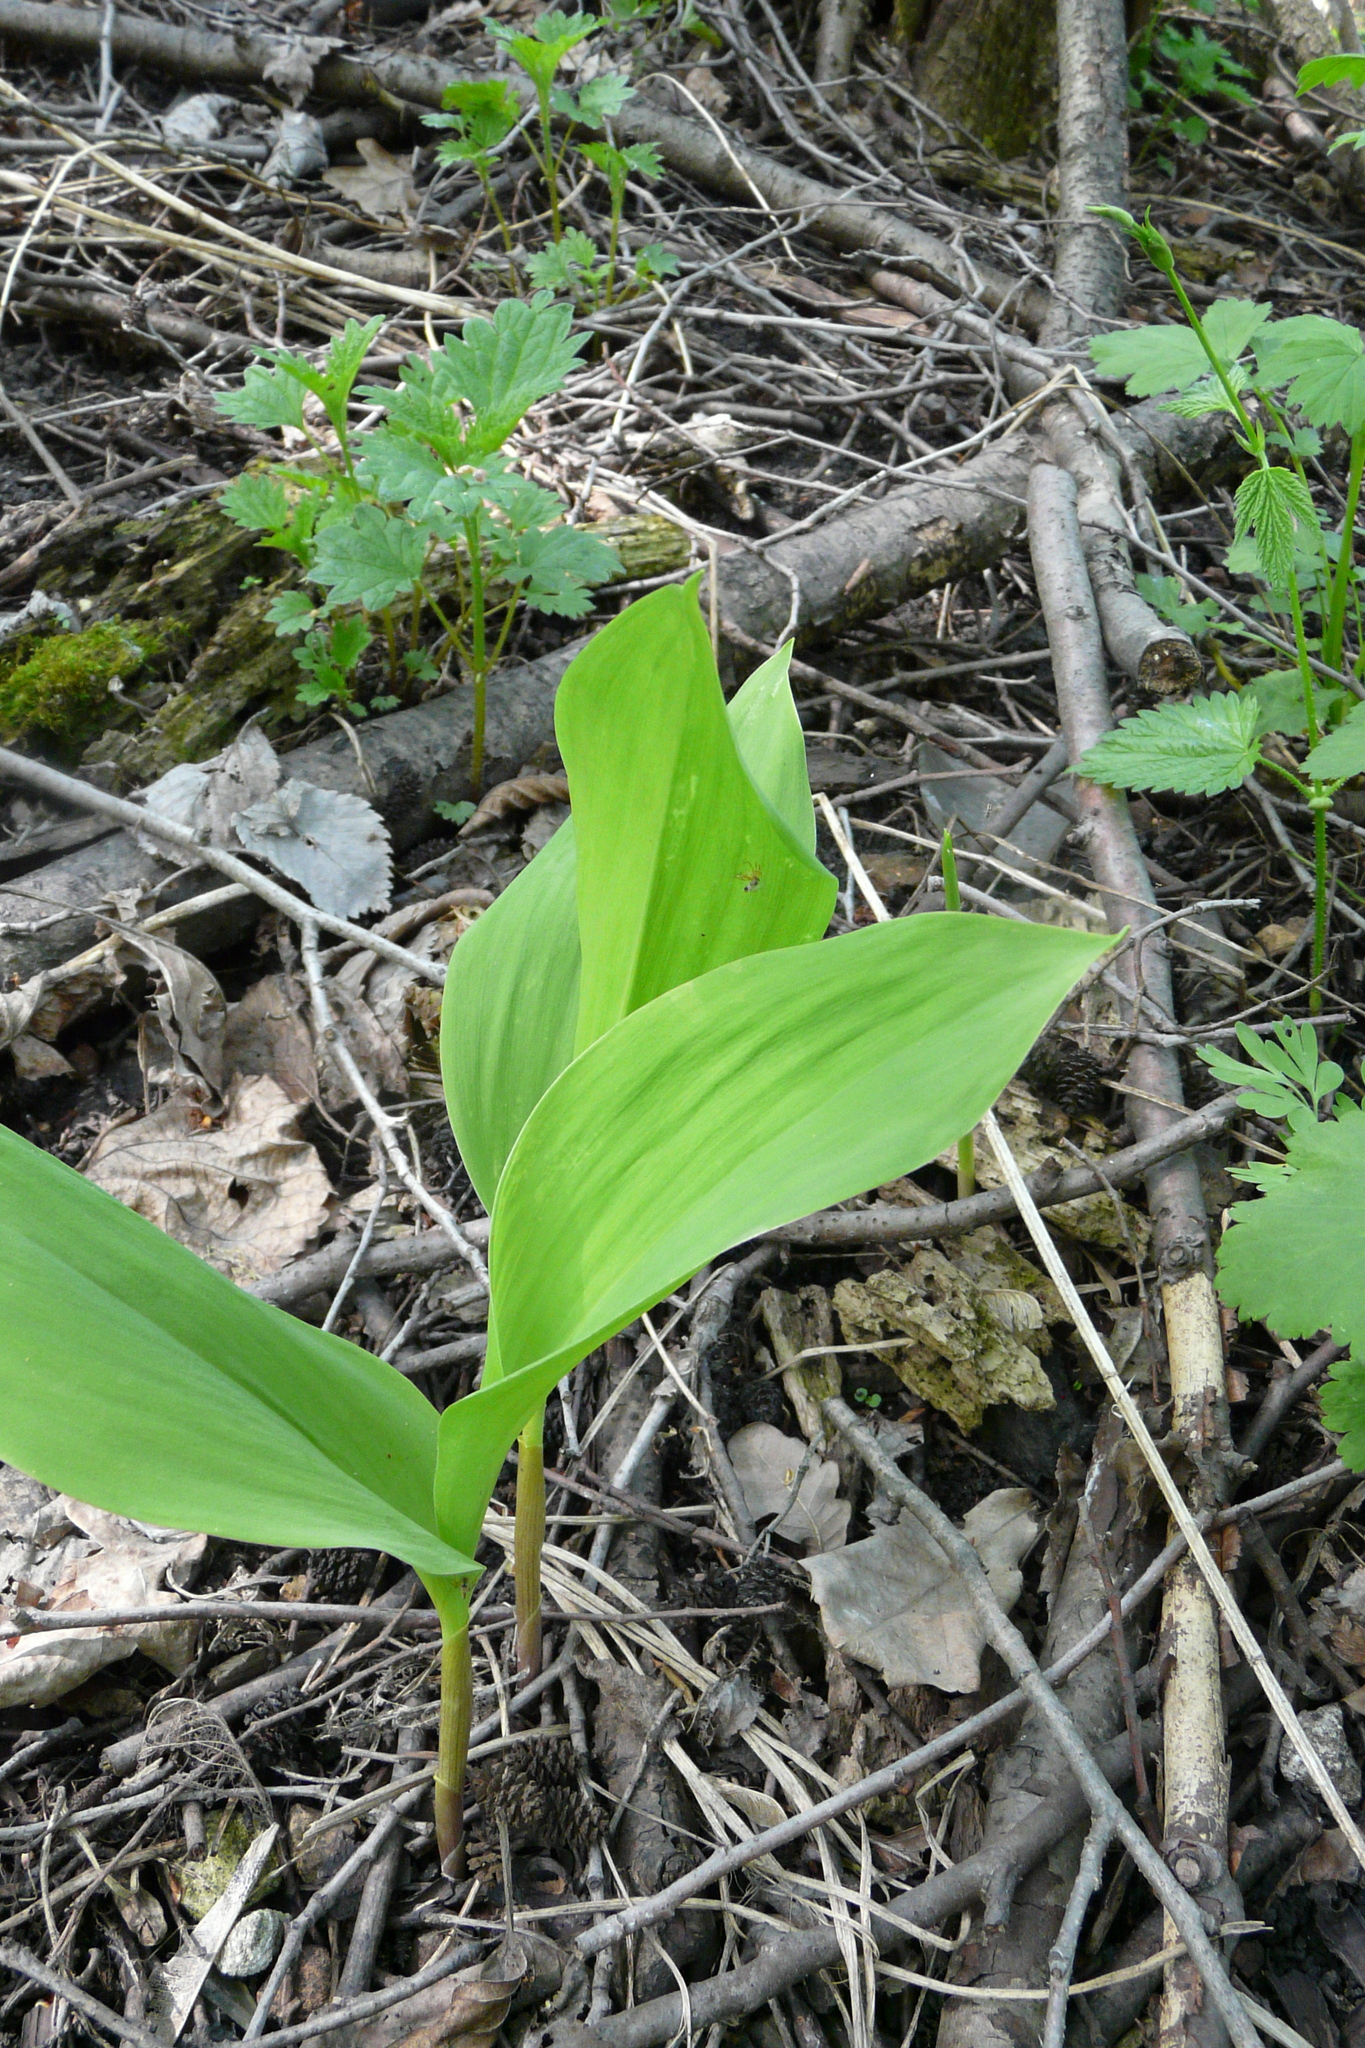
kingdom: Plantae
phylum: Tracheophyta
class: Liliopsida
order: Asparagales
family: Asparagaceae
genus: Convallaria
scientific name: Convallaria majalis
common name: Lily-of-the-valley
